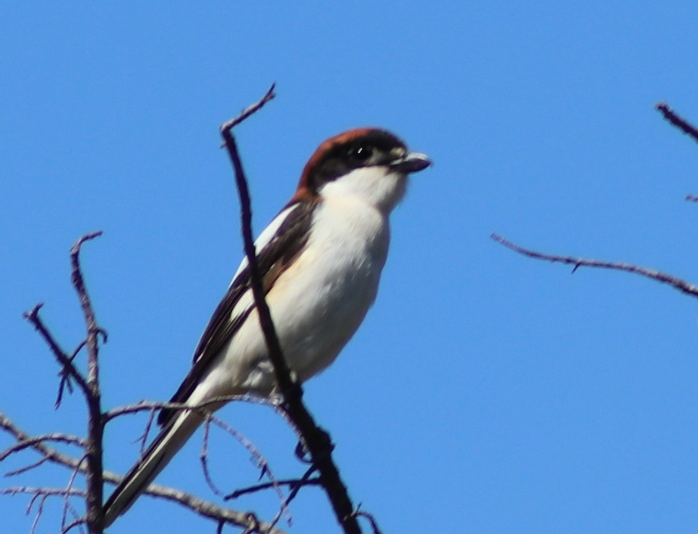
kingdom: Animalia
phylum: Chordata
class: Aves
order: Passeriformes
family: Laniidae
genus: Lanius
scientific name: Lanius senator
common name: Woodchat shrike
